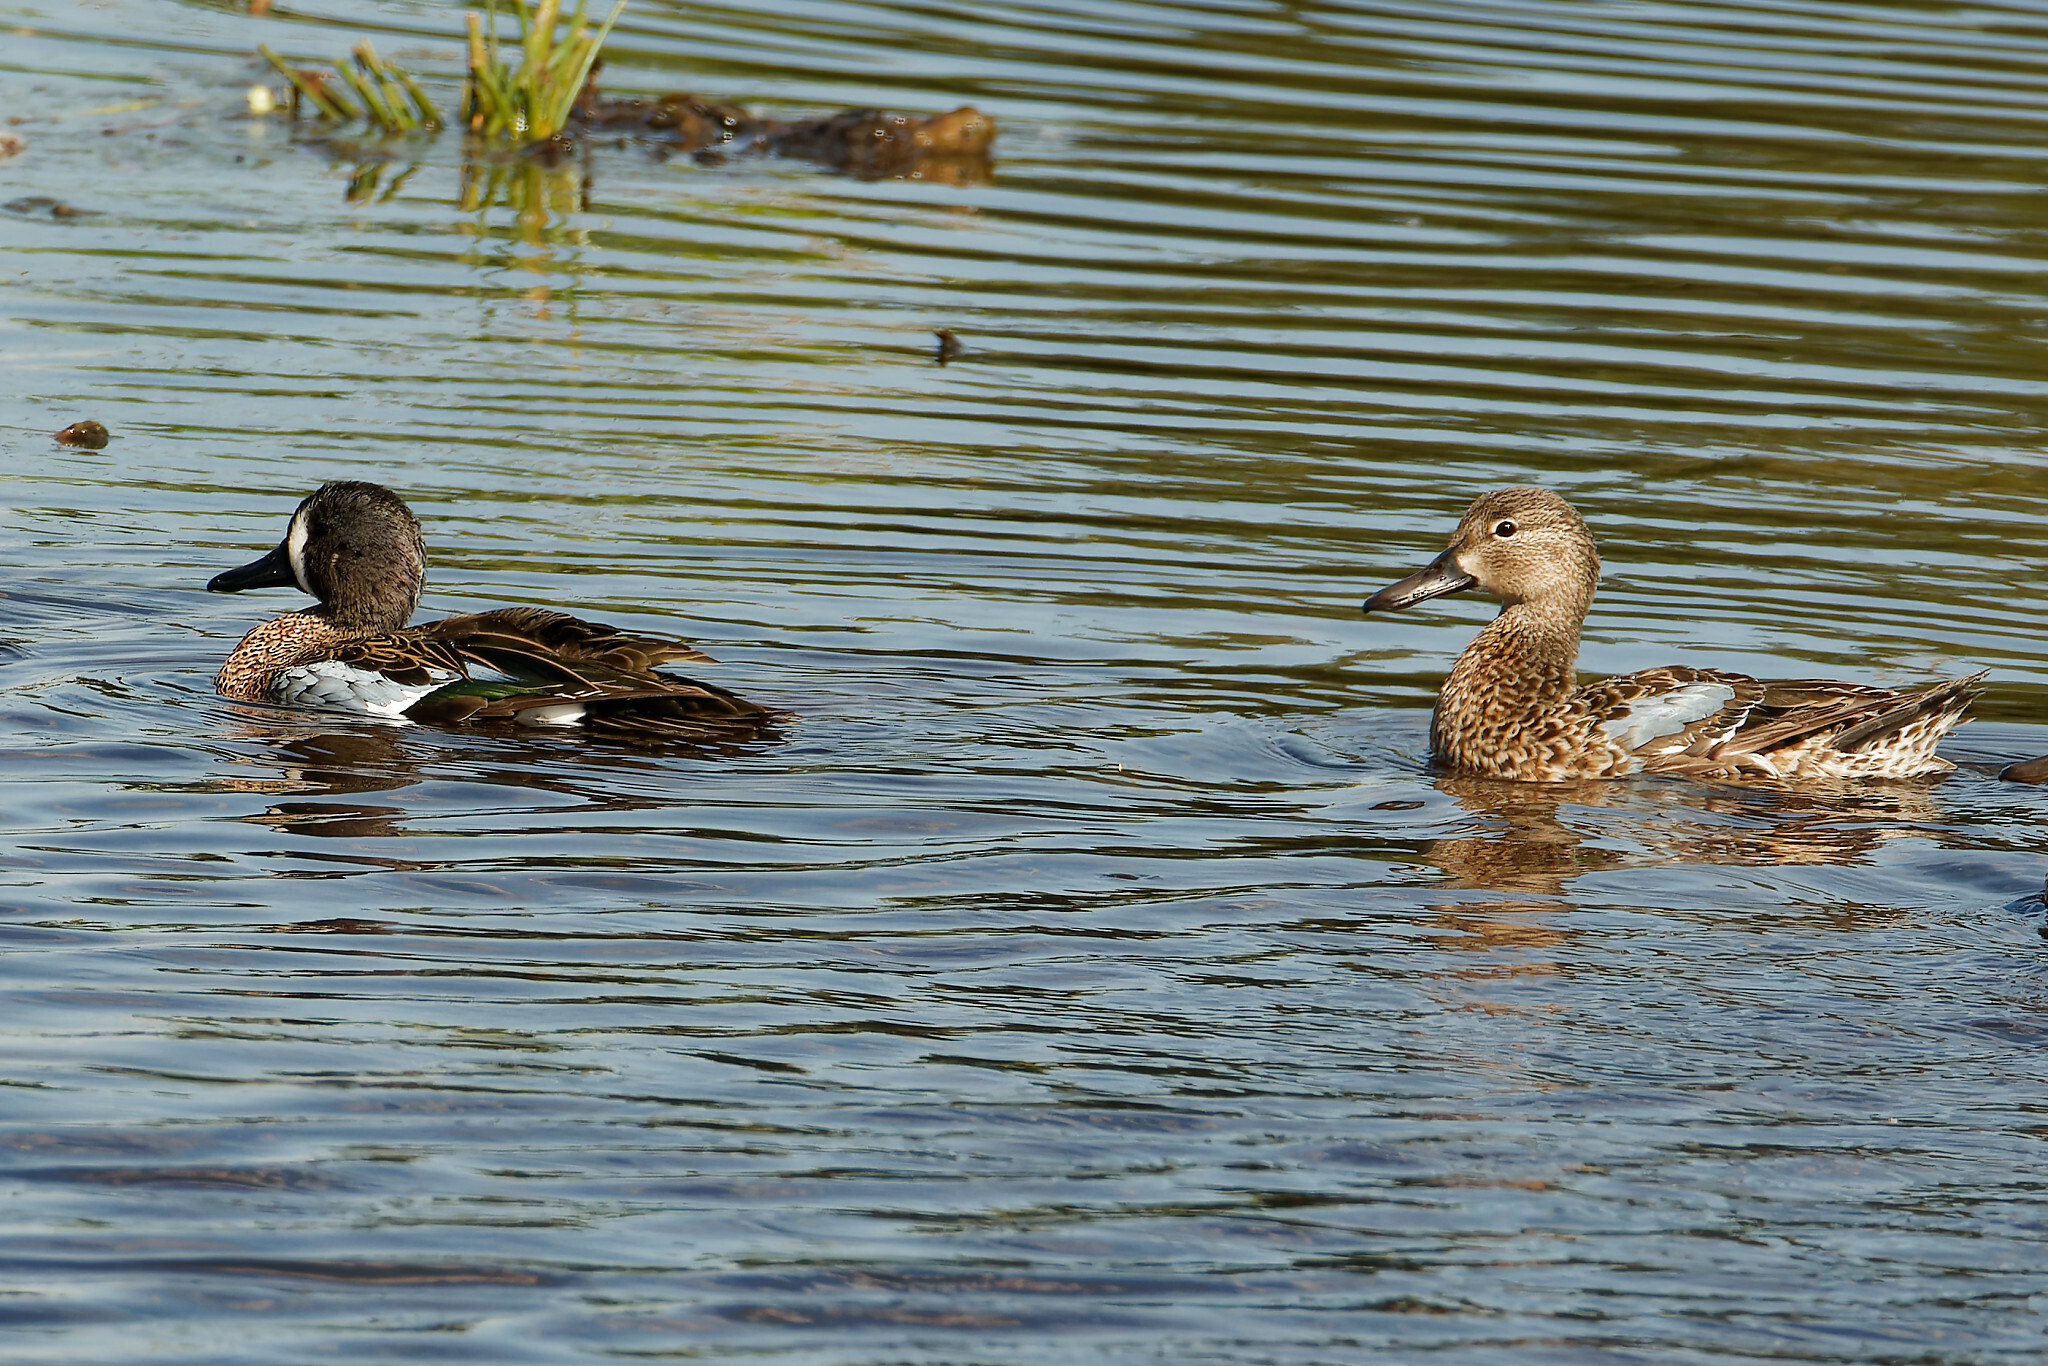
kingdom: Animalia
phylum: Chordata
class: Aves
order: Anseriformes
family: Anatidae
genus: Spatula
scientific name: Spatula discors
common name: Blue-winged teal
